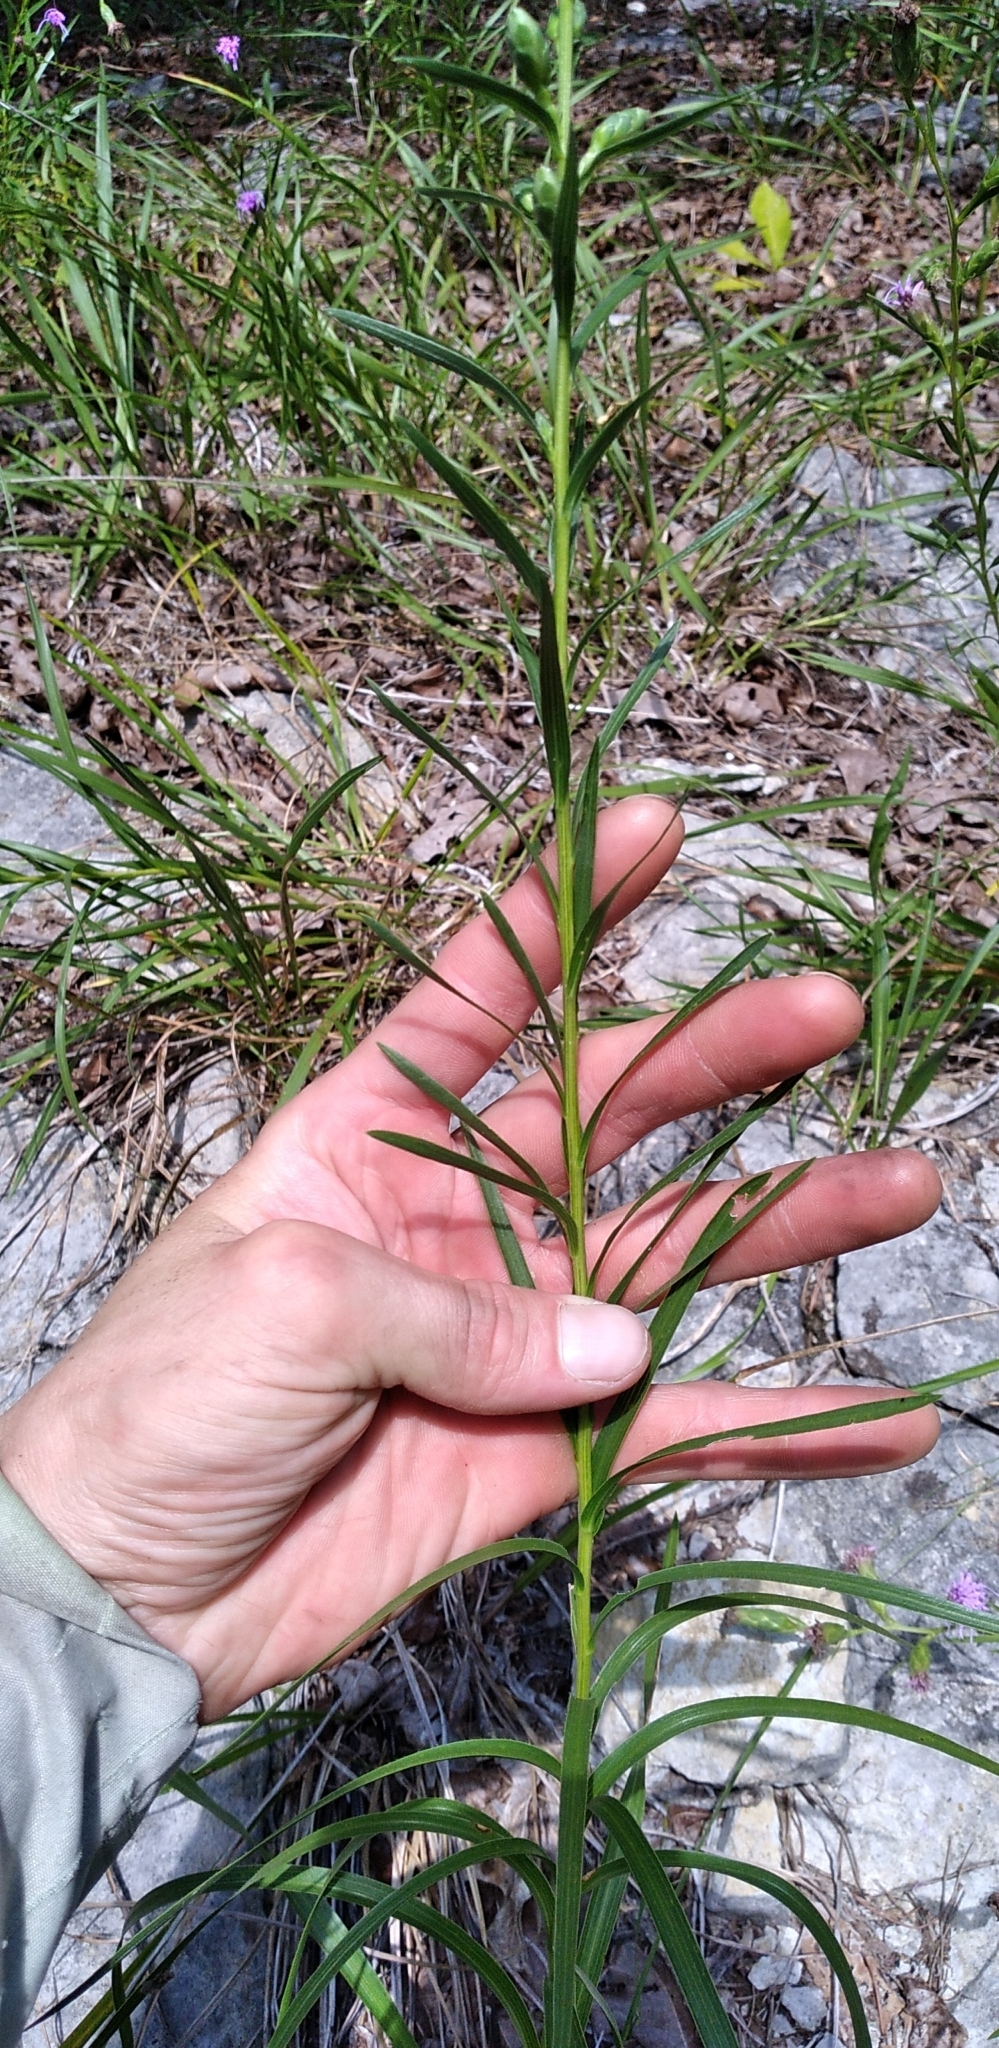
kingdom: Plantae
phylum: Tracheophyta
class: Magnoliopsida
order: Asterales
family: Asteraceae
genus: Liatris
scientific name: Liatris cylindracea
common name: Few-head blazingstar
